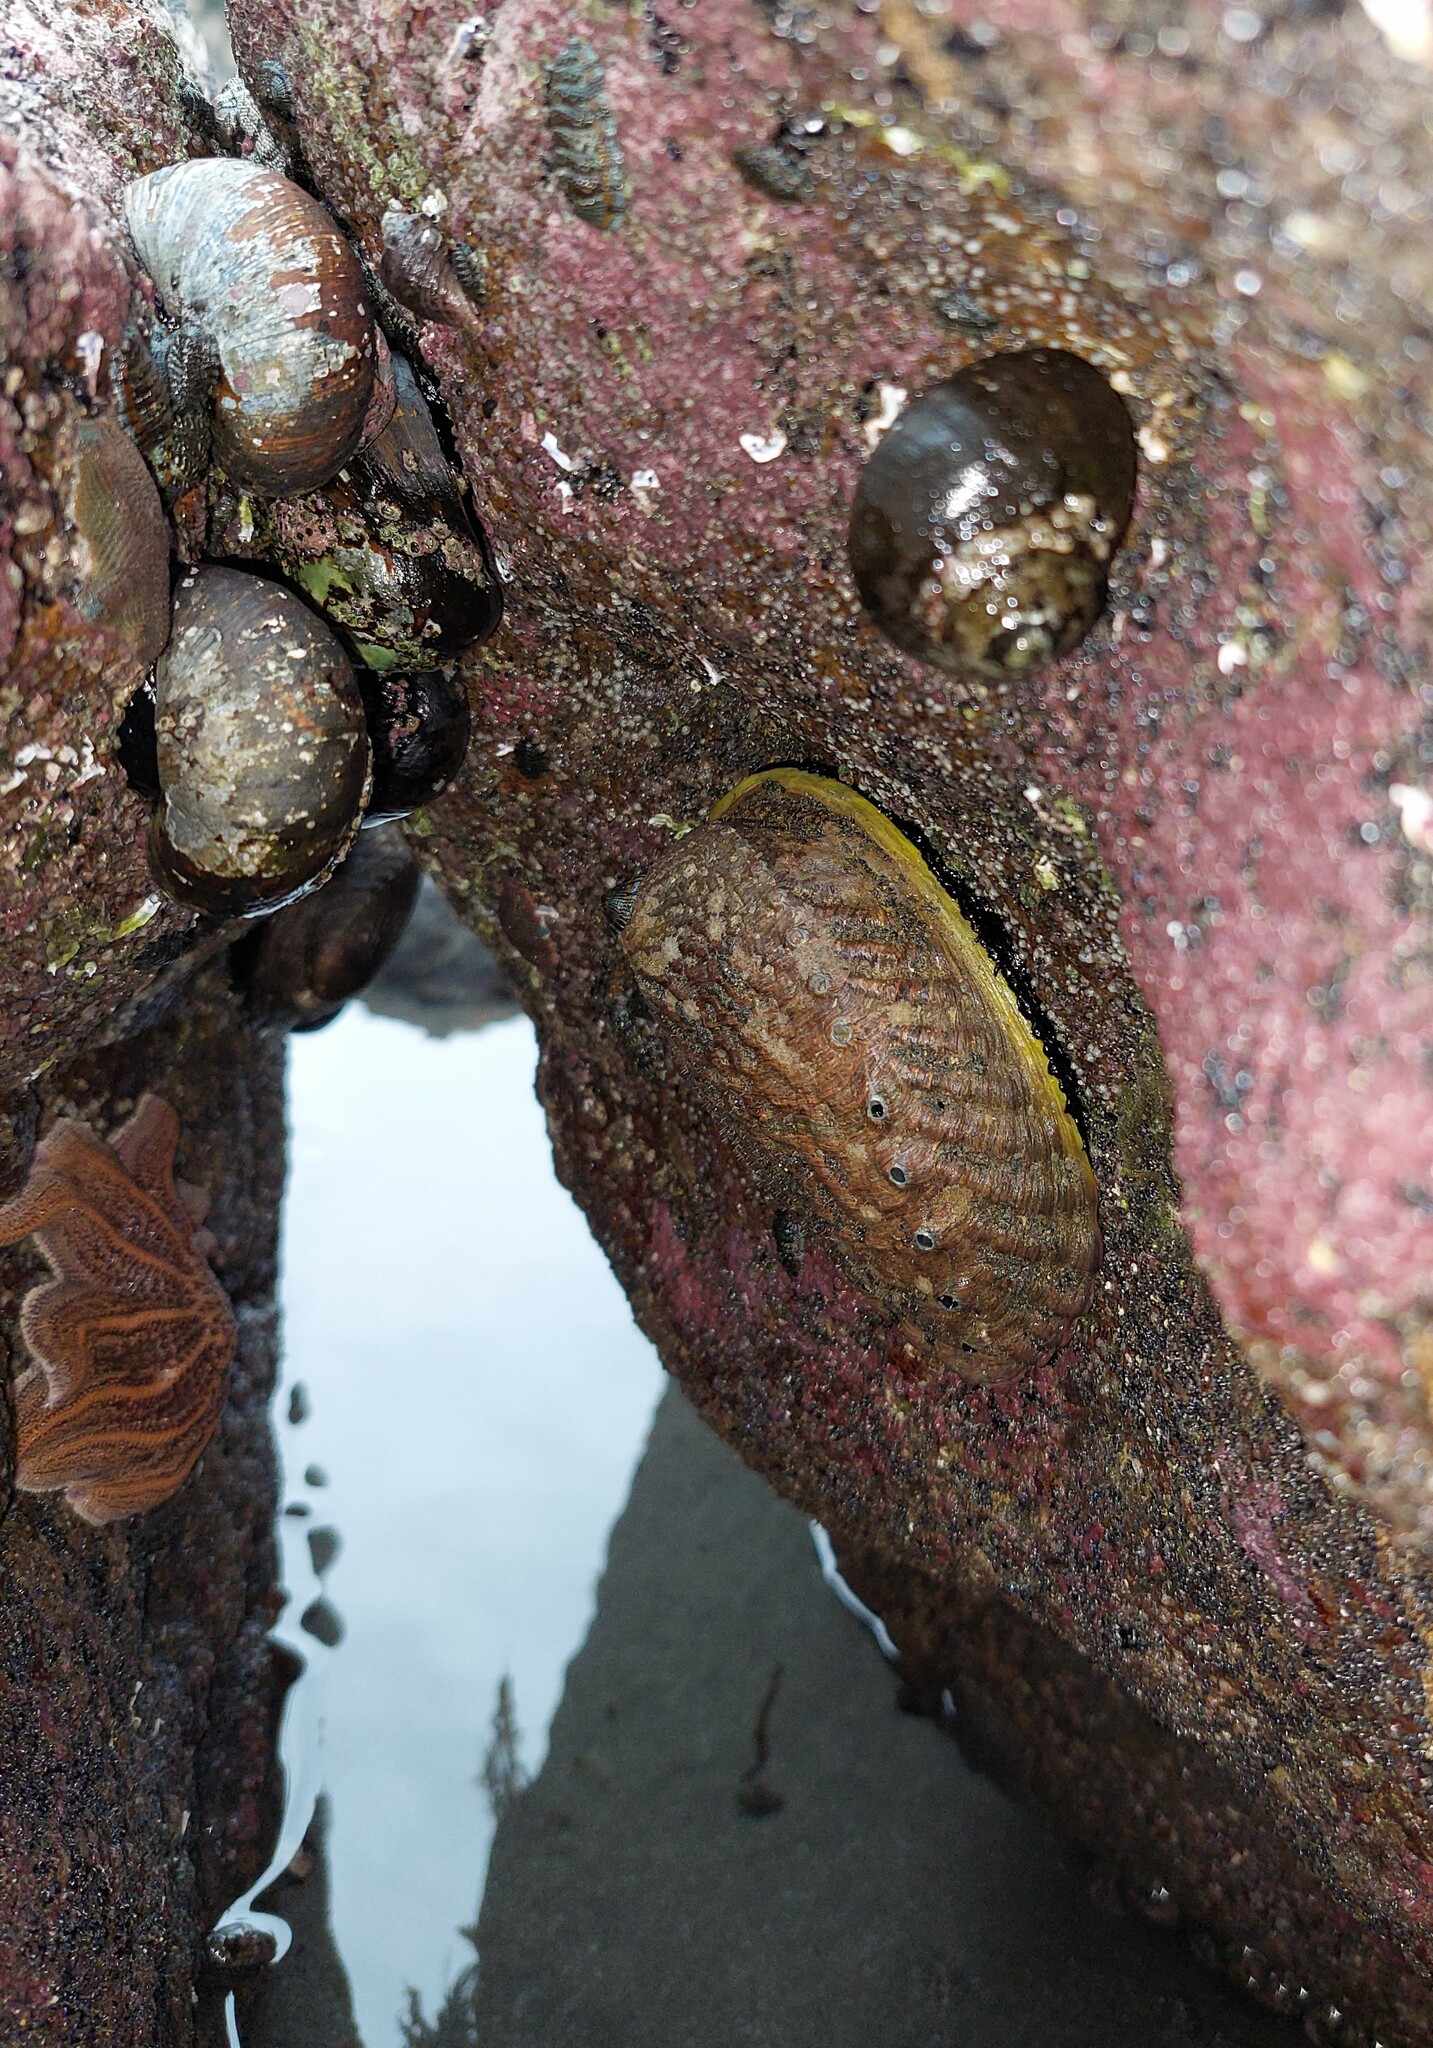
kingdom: Animalia
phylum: Mollusca
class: Gastropoda
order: Lepetellida
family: Haliotidae
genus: Haliotis
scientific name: Haliotis iris
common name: Abalone
